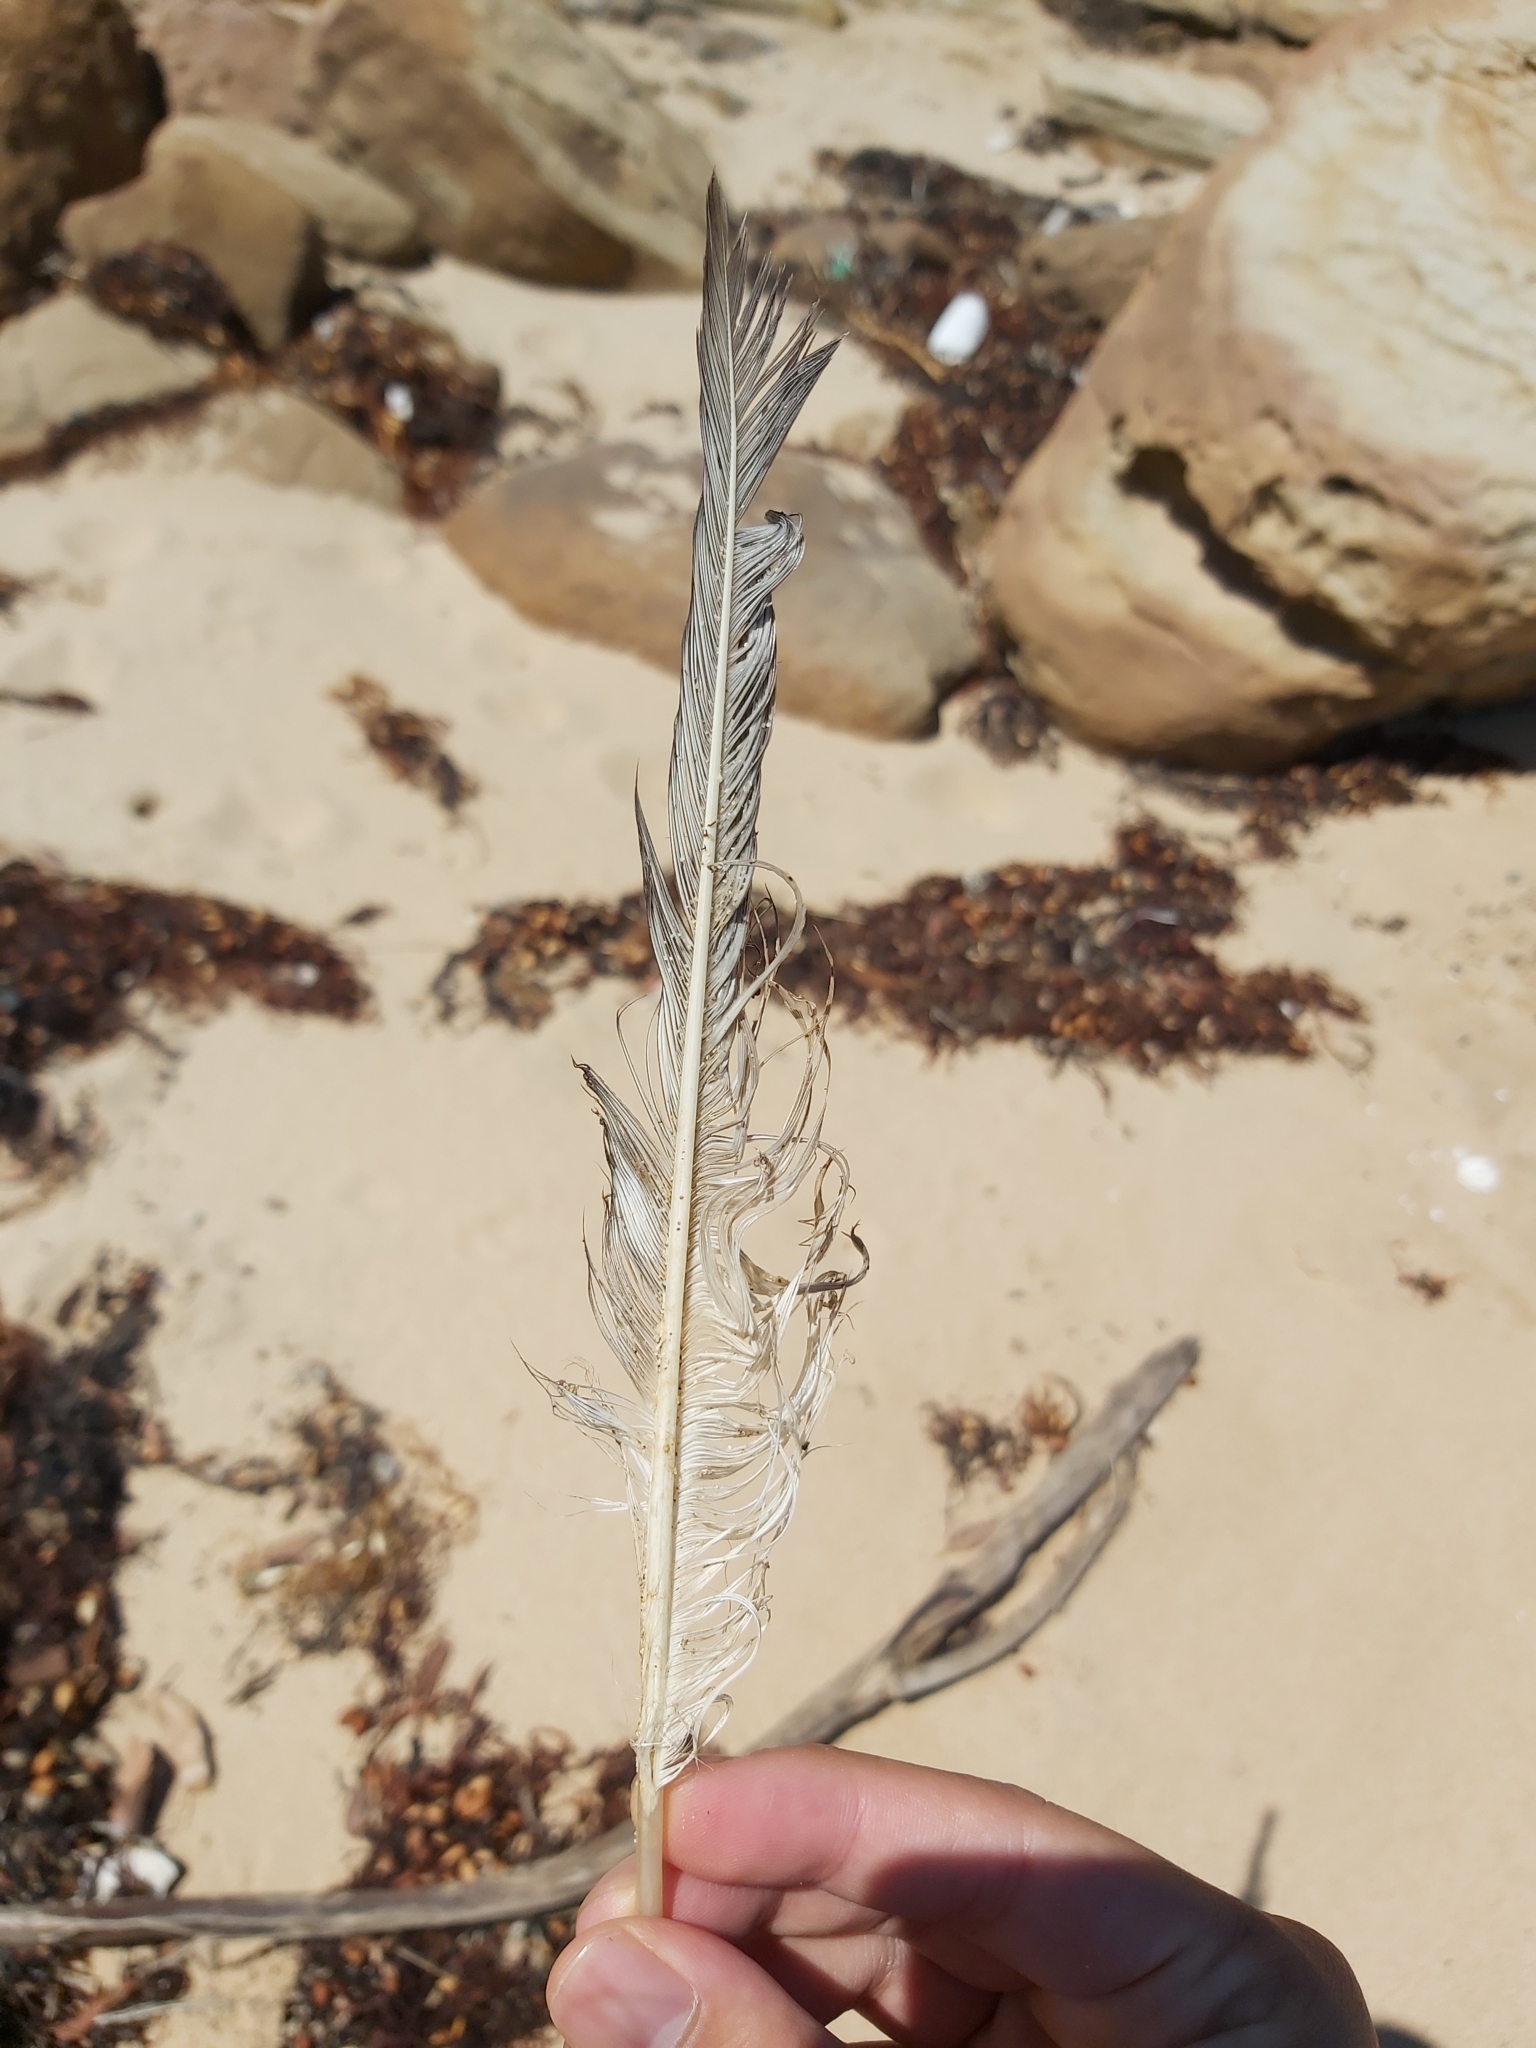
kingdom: Animalia
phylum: Chordata
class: Aves
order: Suliformes
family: Sulidae
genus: Morus
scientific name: Morus serrator
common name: Australasian gannet
